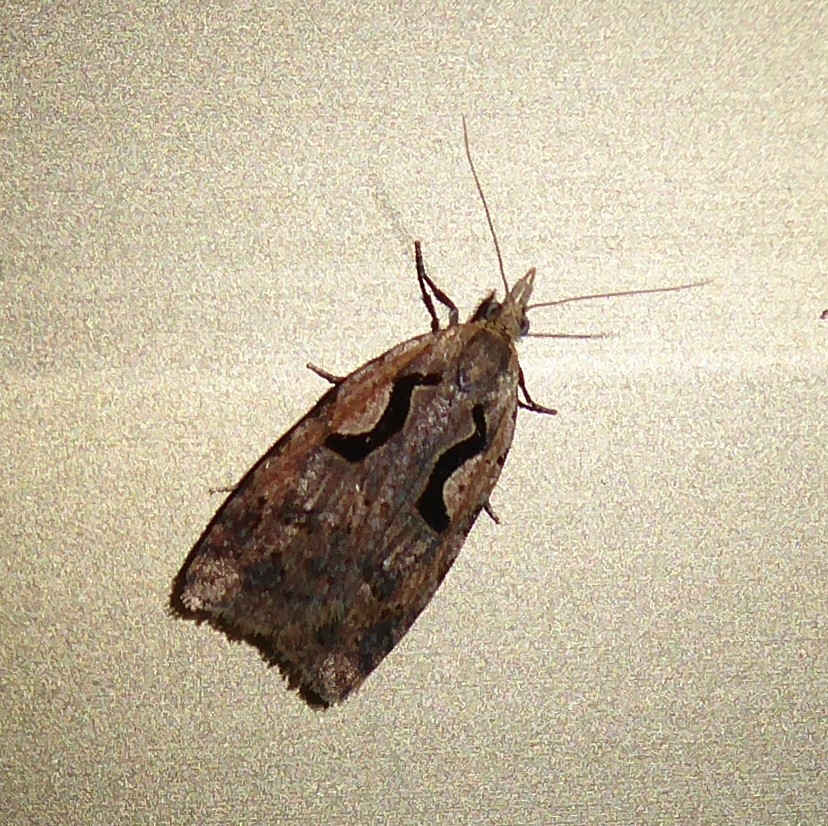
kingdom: Animalia
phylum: Arthropoda
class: Insecta
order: Lepidoptera
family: Tortricidae
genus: Cnephasia
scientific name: Cnephasia jactatana
